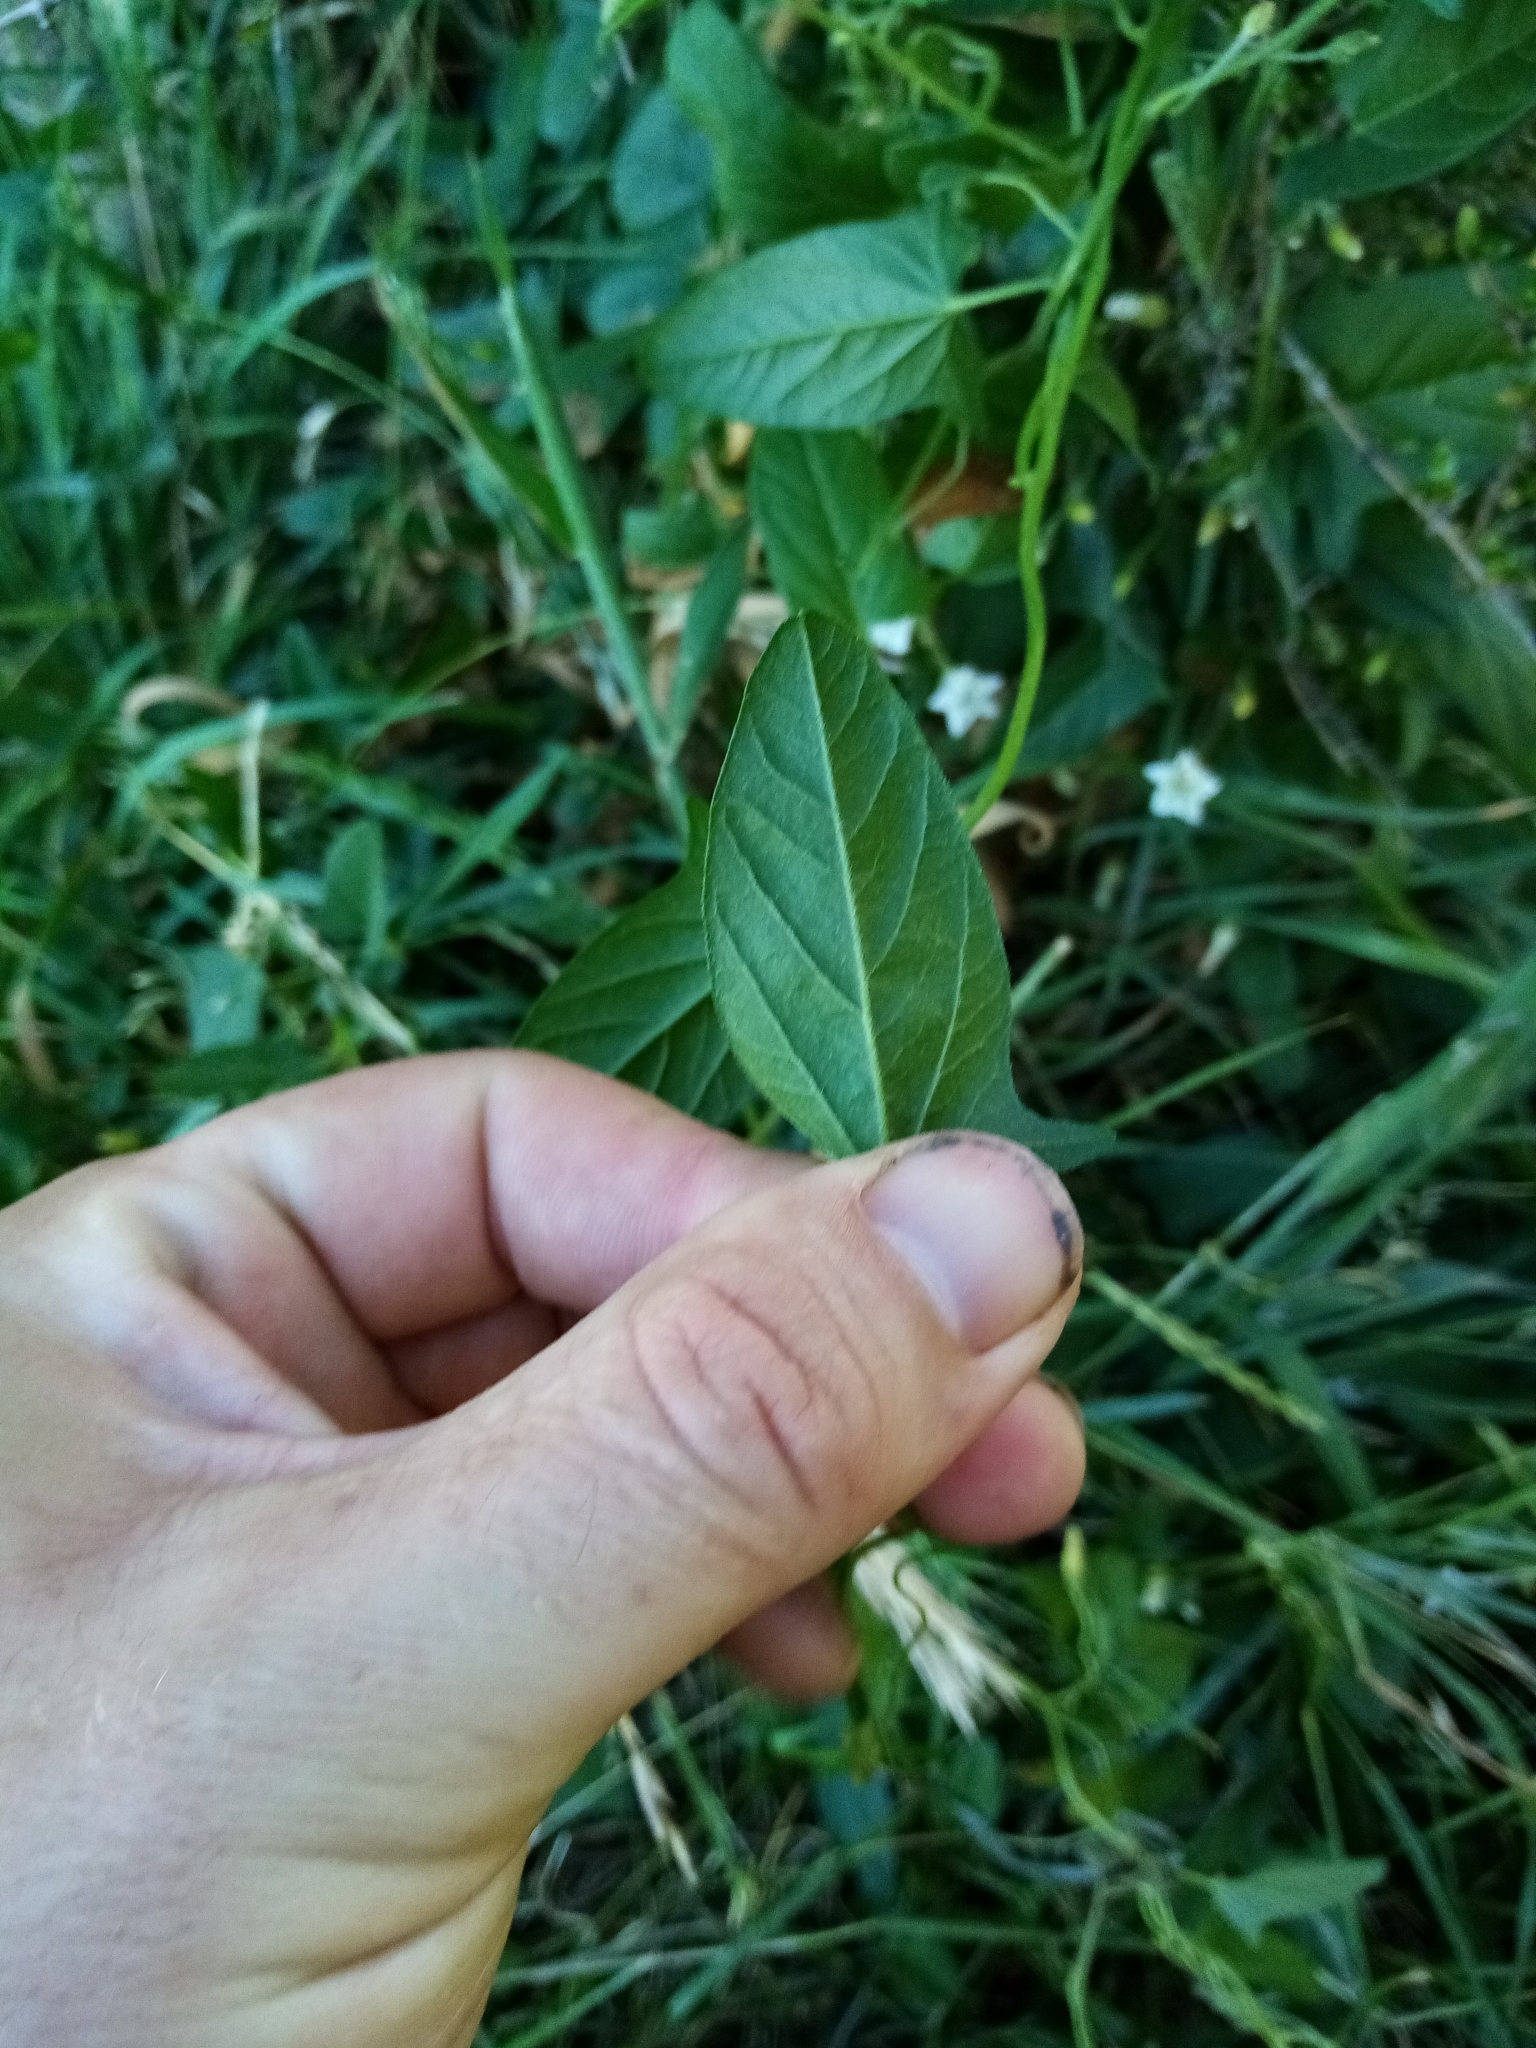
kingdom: Plantae
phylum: Tracheophyta
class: Magnoliopsida
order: Solanales
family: Convolvulaceae
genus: Convolvulus
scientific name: Convolvulus arvensis
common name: Field bindweed
